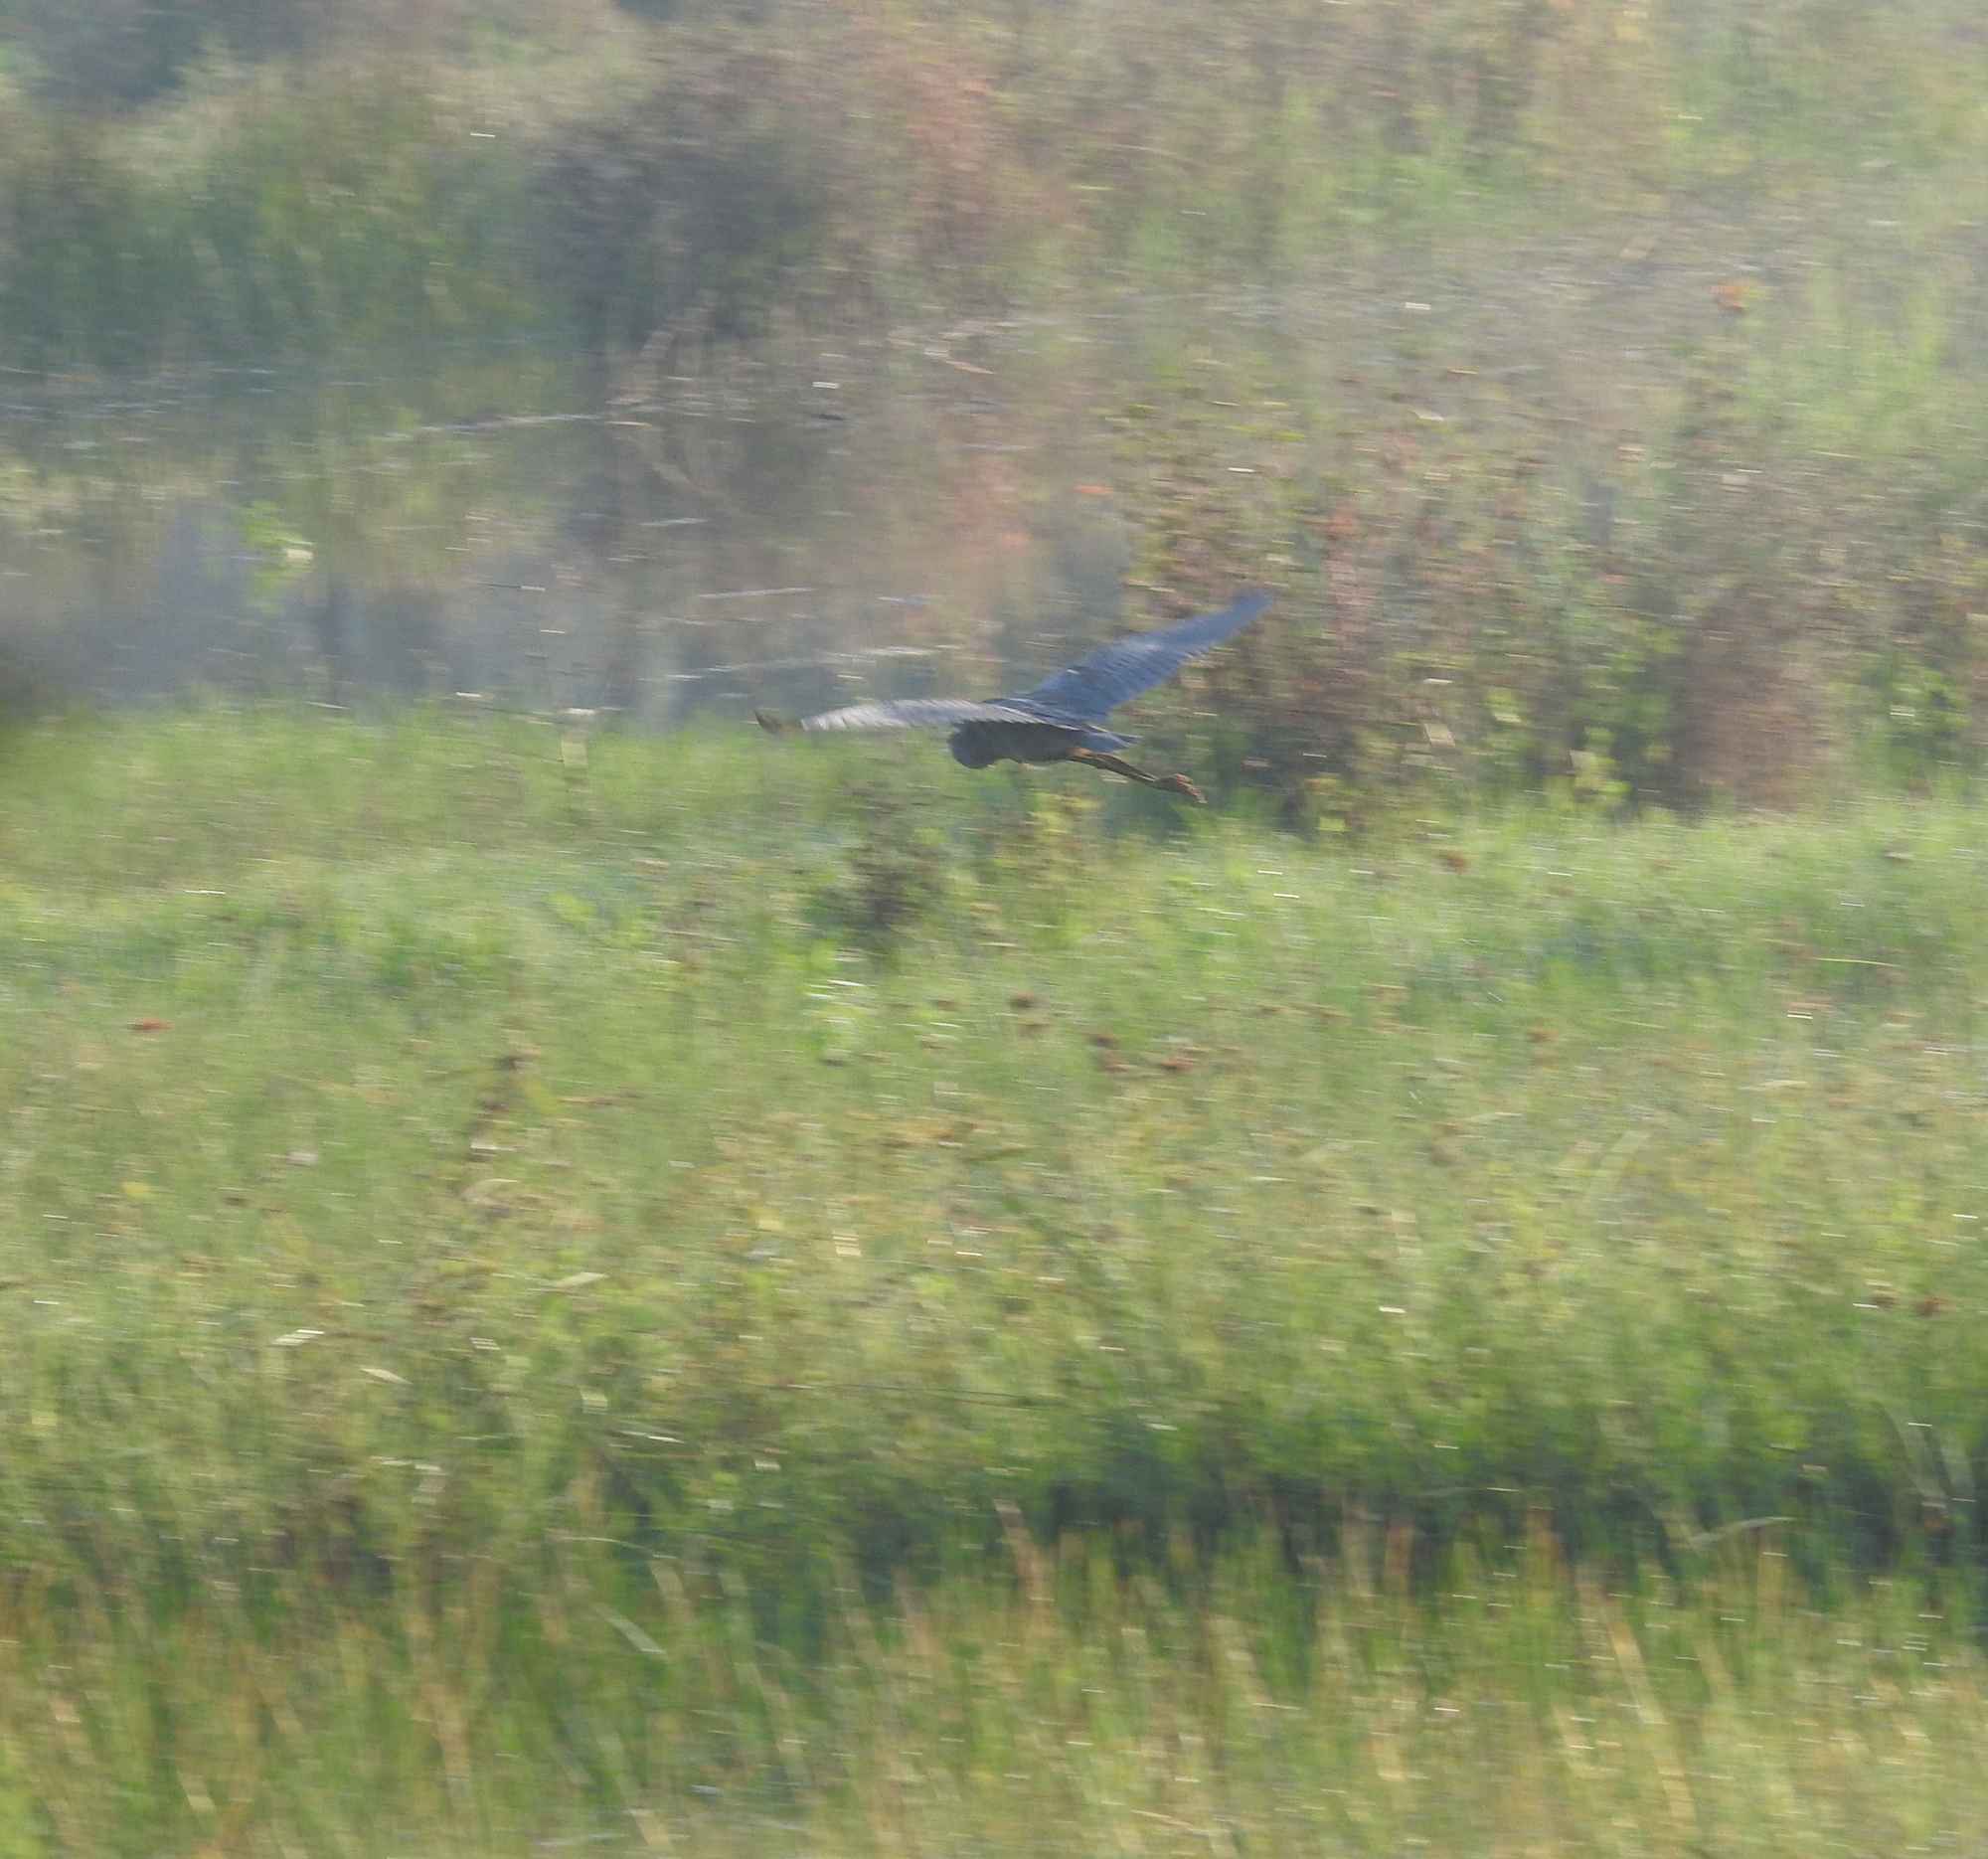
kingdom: Animalia
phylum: Chordata
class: Aves
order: Pelecaniformes
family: Ardeidae
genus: Ardea
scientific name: Ardea purpurea
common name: Purple heron
